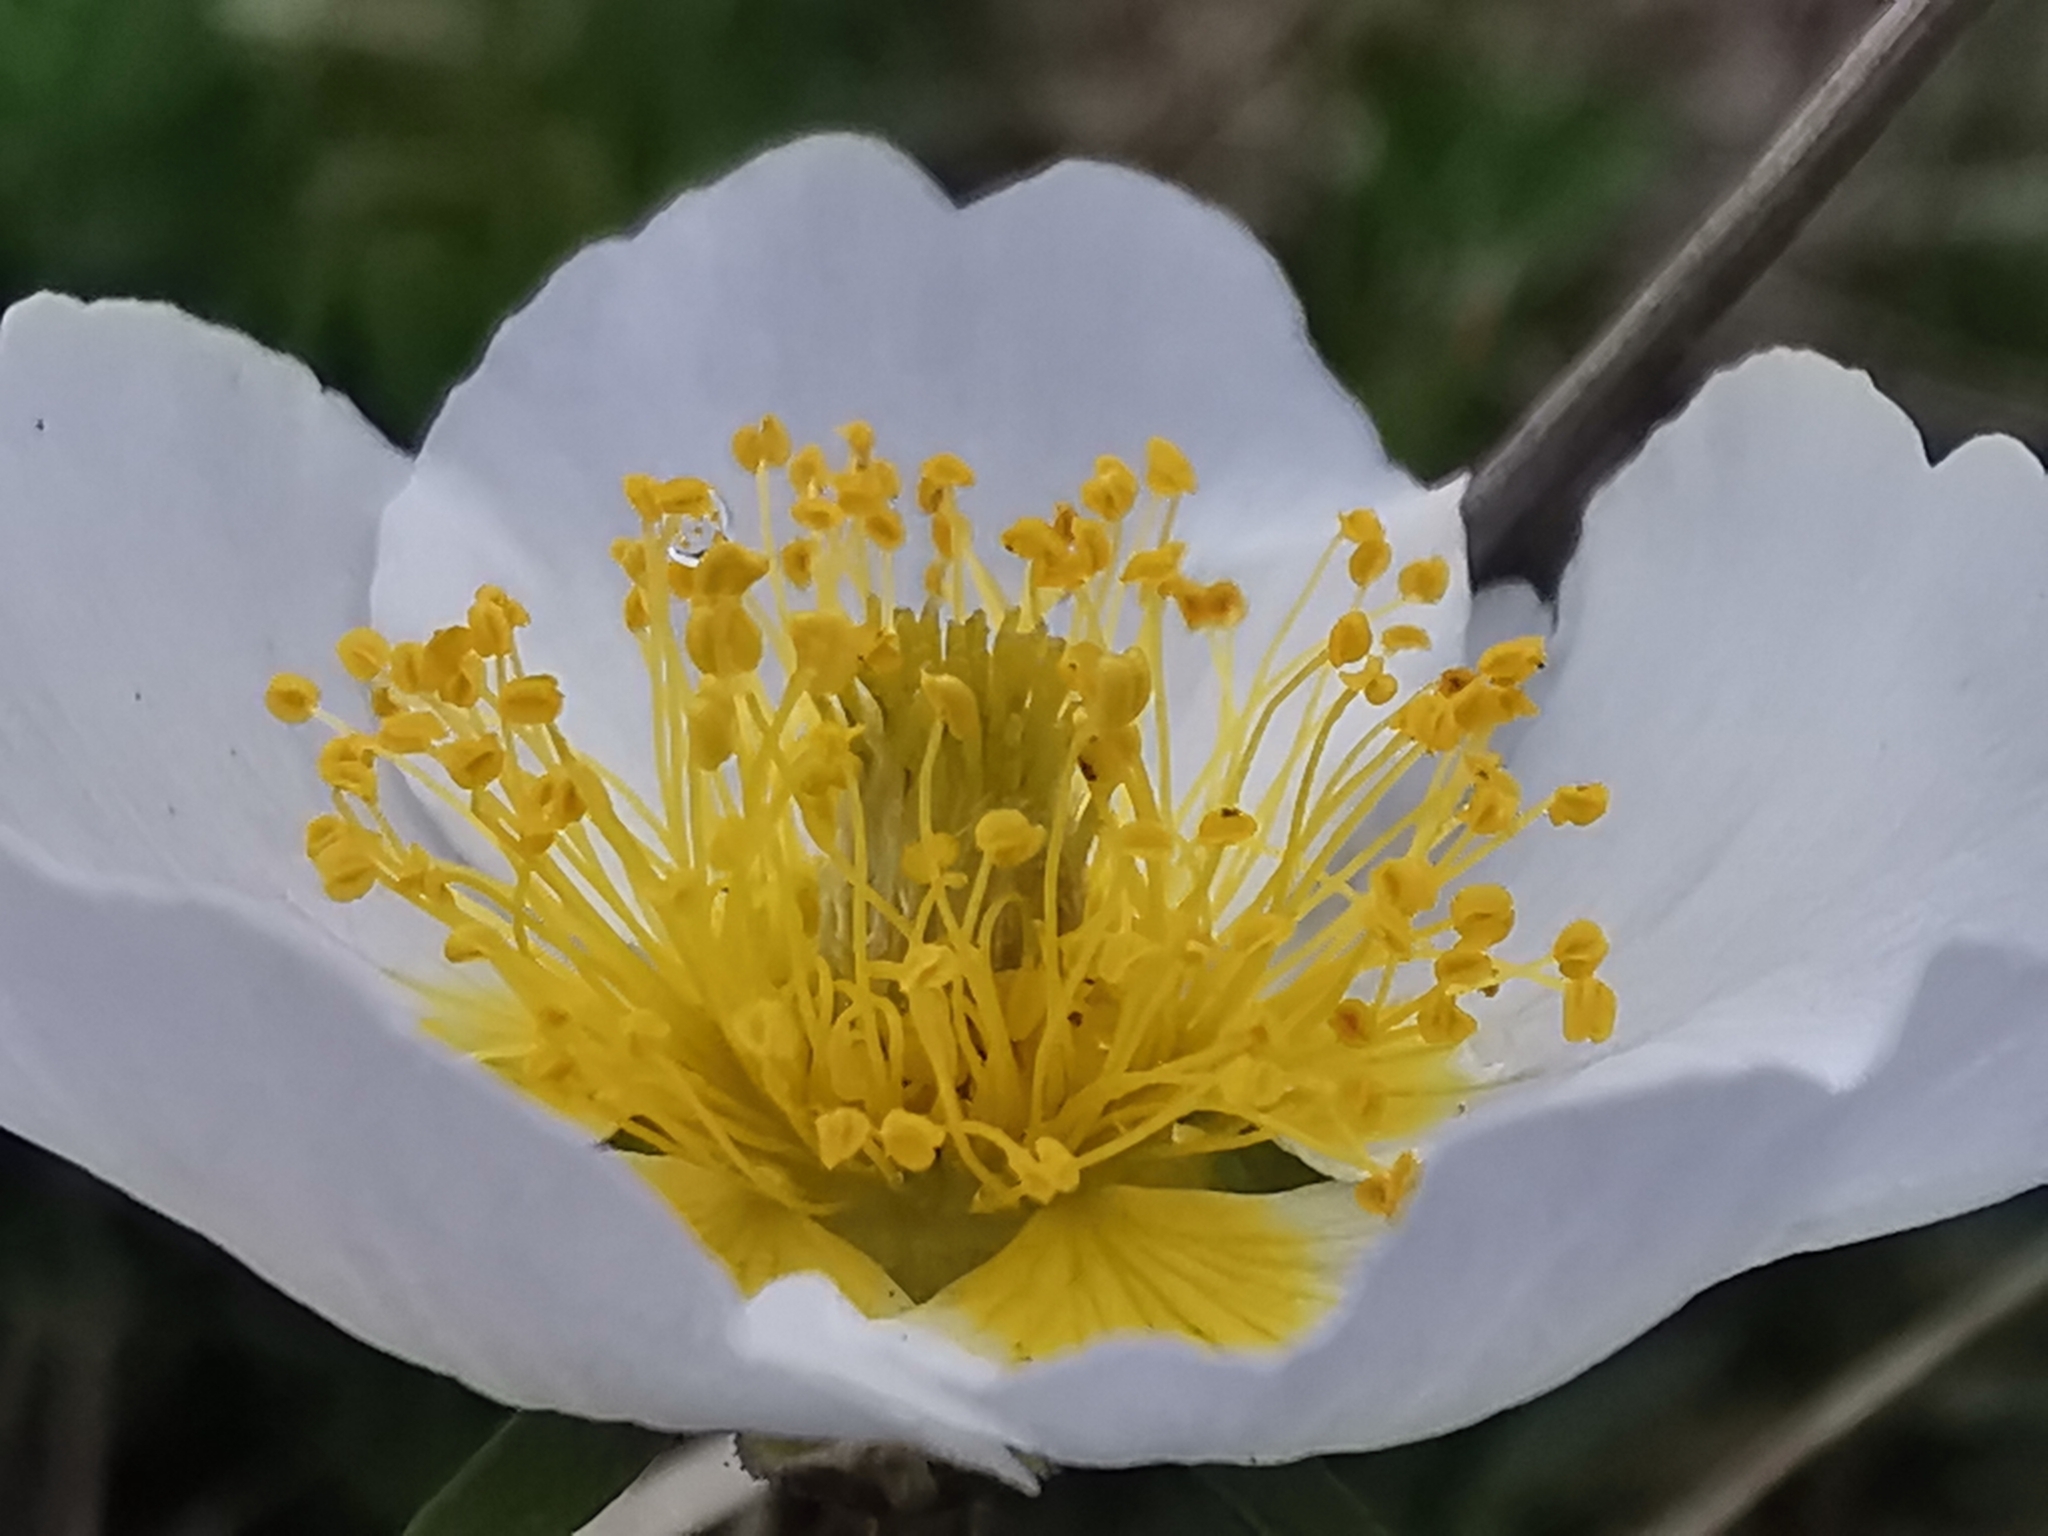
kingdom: Plantae
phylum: Tracheophyta
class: Magnoliopsida
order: Rosales
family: Rosaceae
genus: Geum
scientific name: Geum pentapetalum
